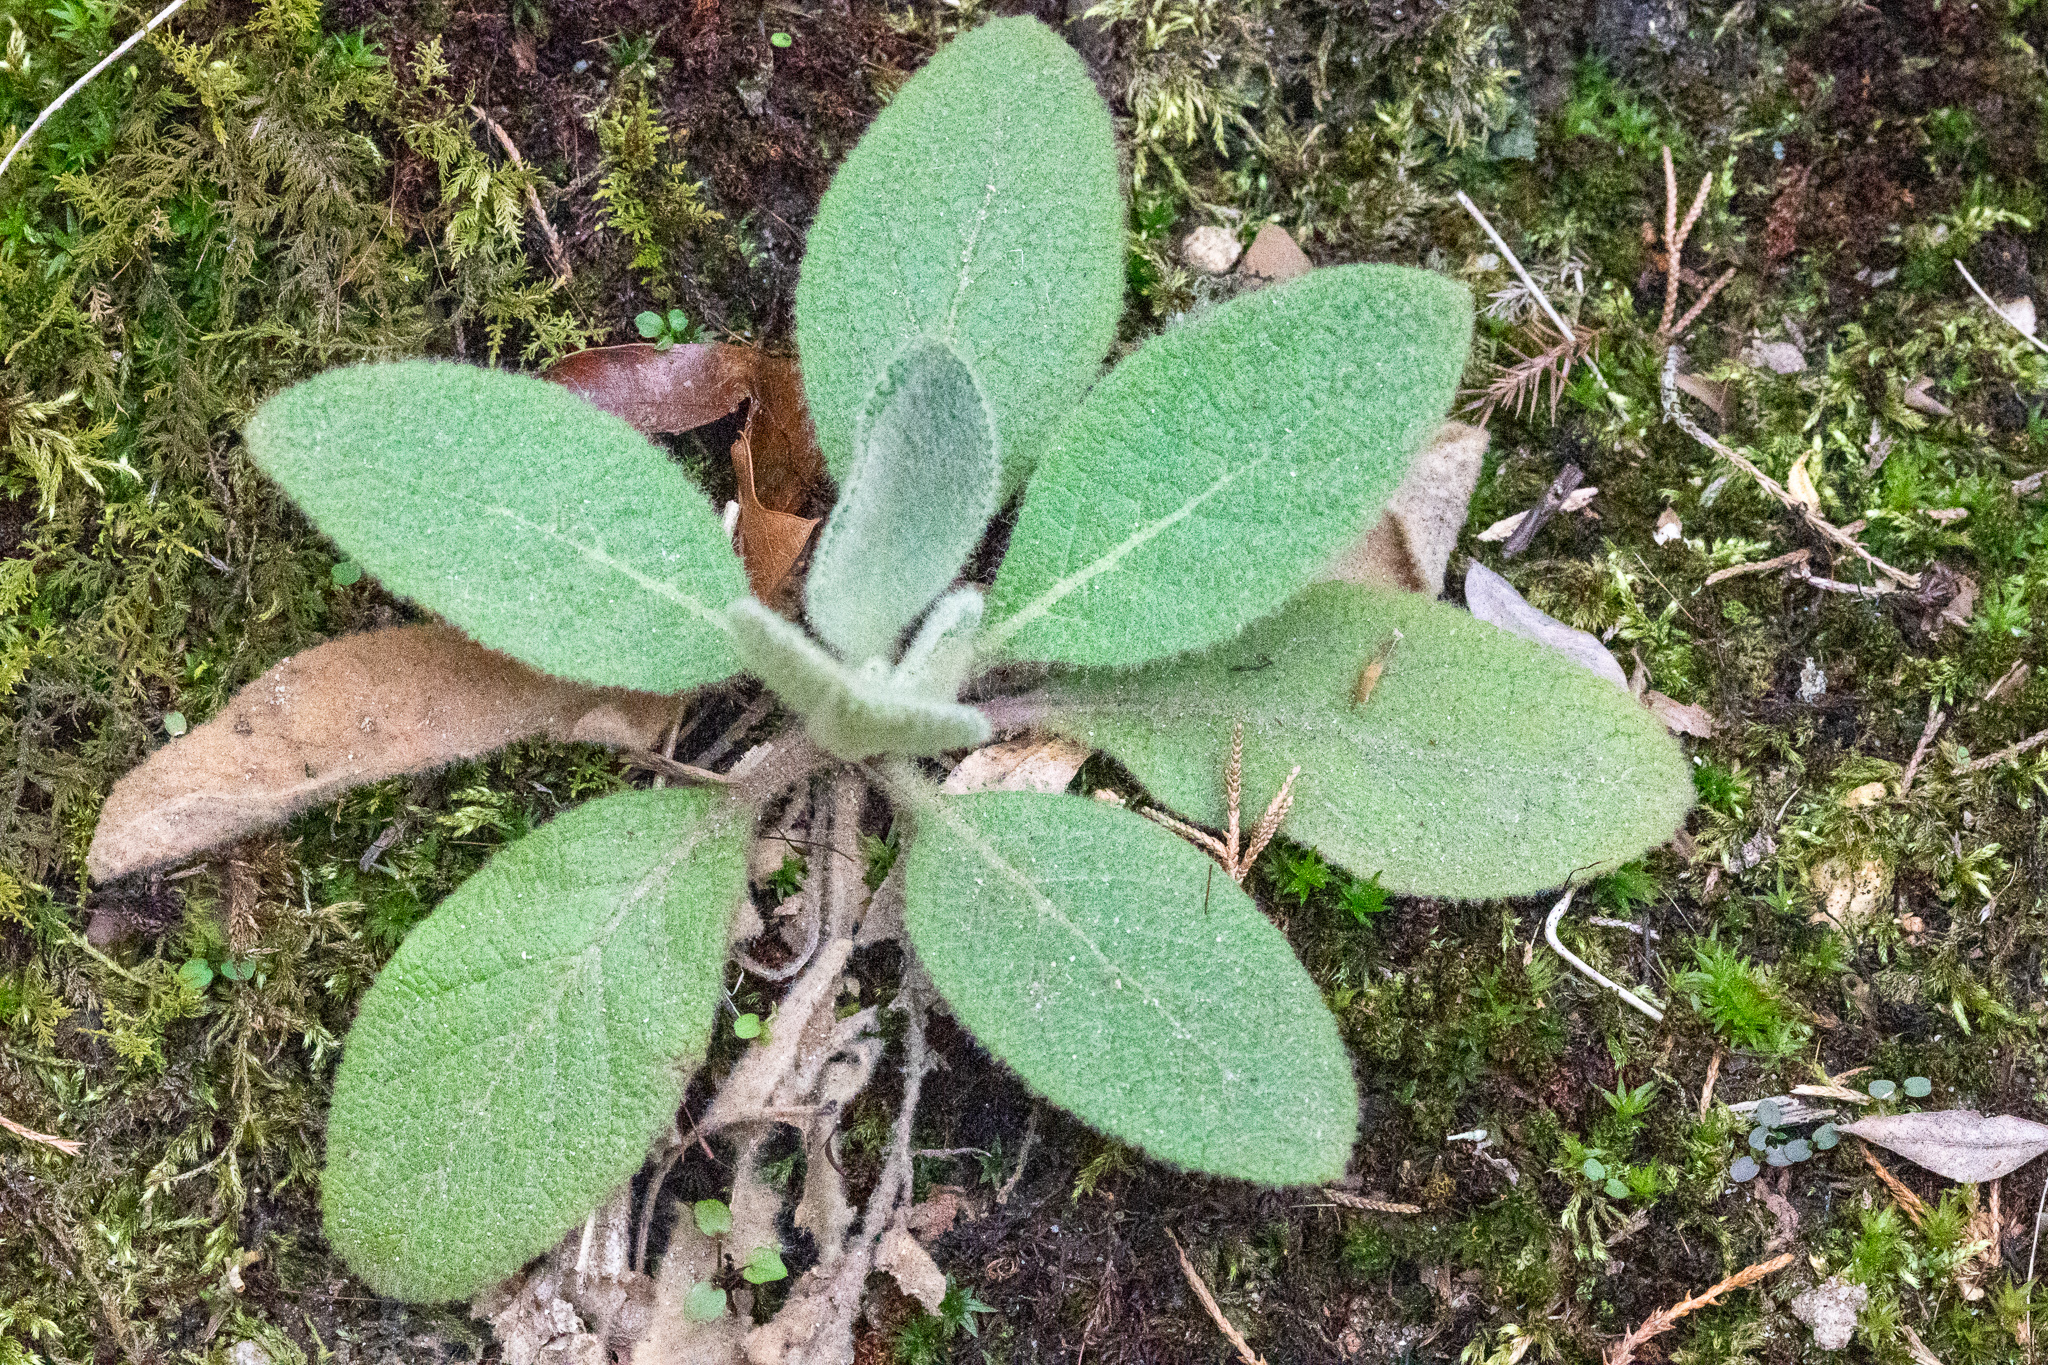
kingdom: Plantae
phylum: Tracheophyta
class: Magnoliopsida
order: Lamiales
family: Scrophulariaceae
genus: Verbascum
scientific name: Verbascum thapsus
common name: Common mullein
